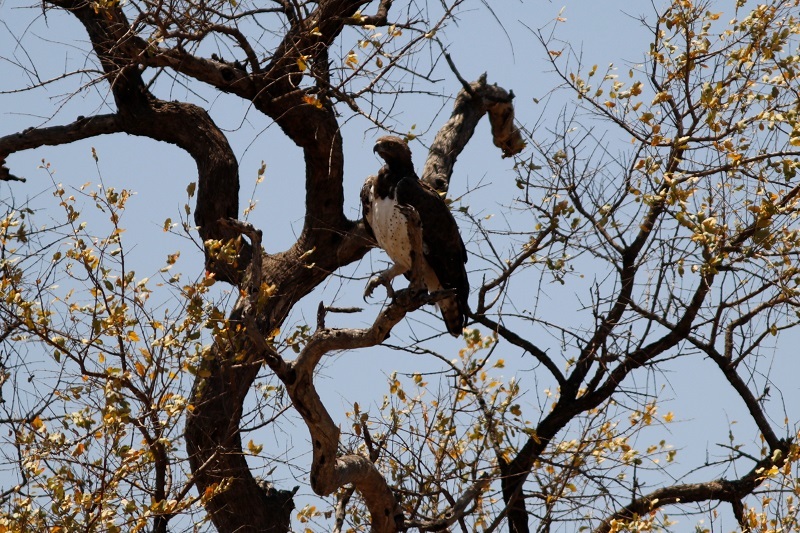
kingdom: Animalia
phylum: Chordata
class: Aves
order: Accipitriformes
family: Accipitridae
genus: Polemaetus
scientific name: Polemaetus bellicosus
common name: Martial eagle
